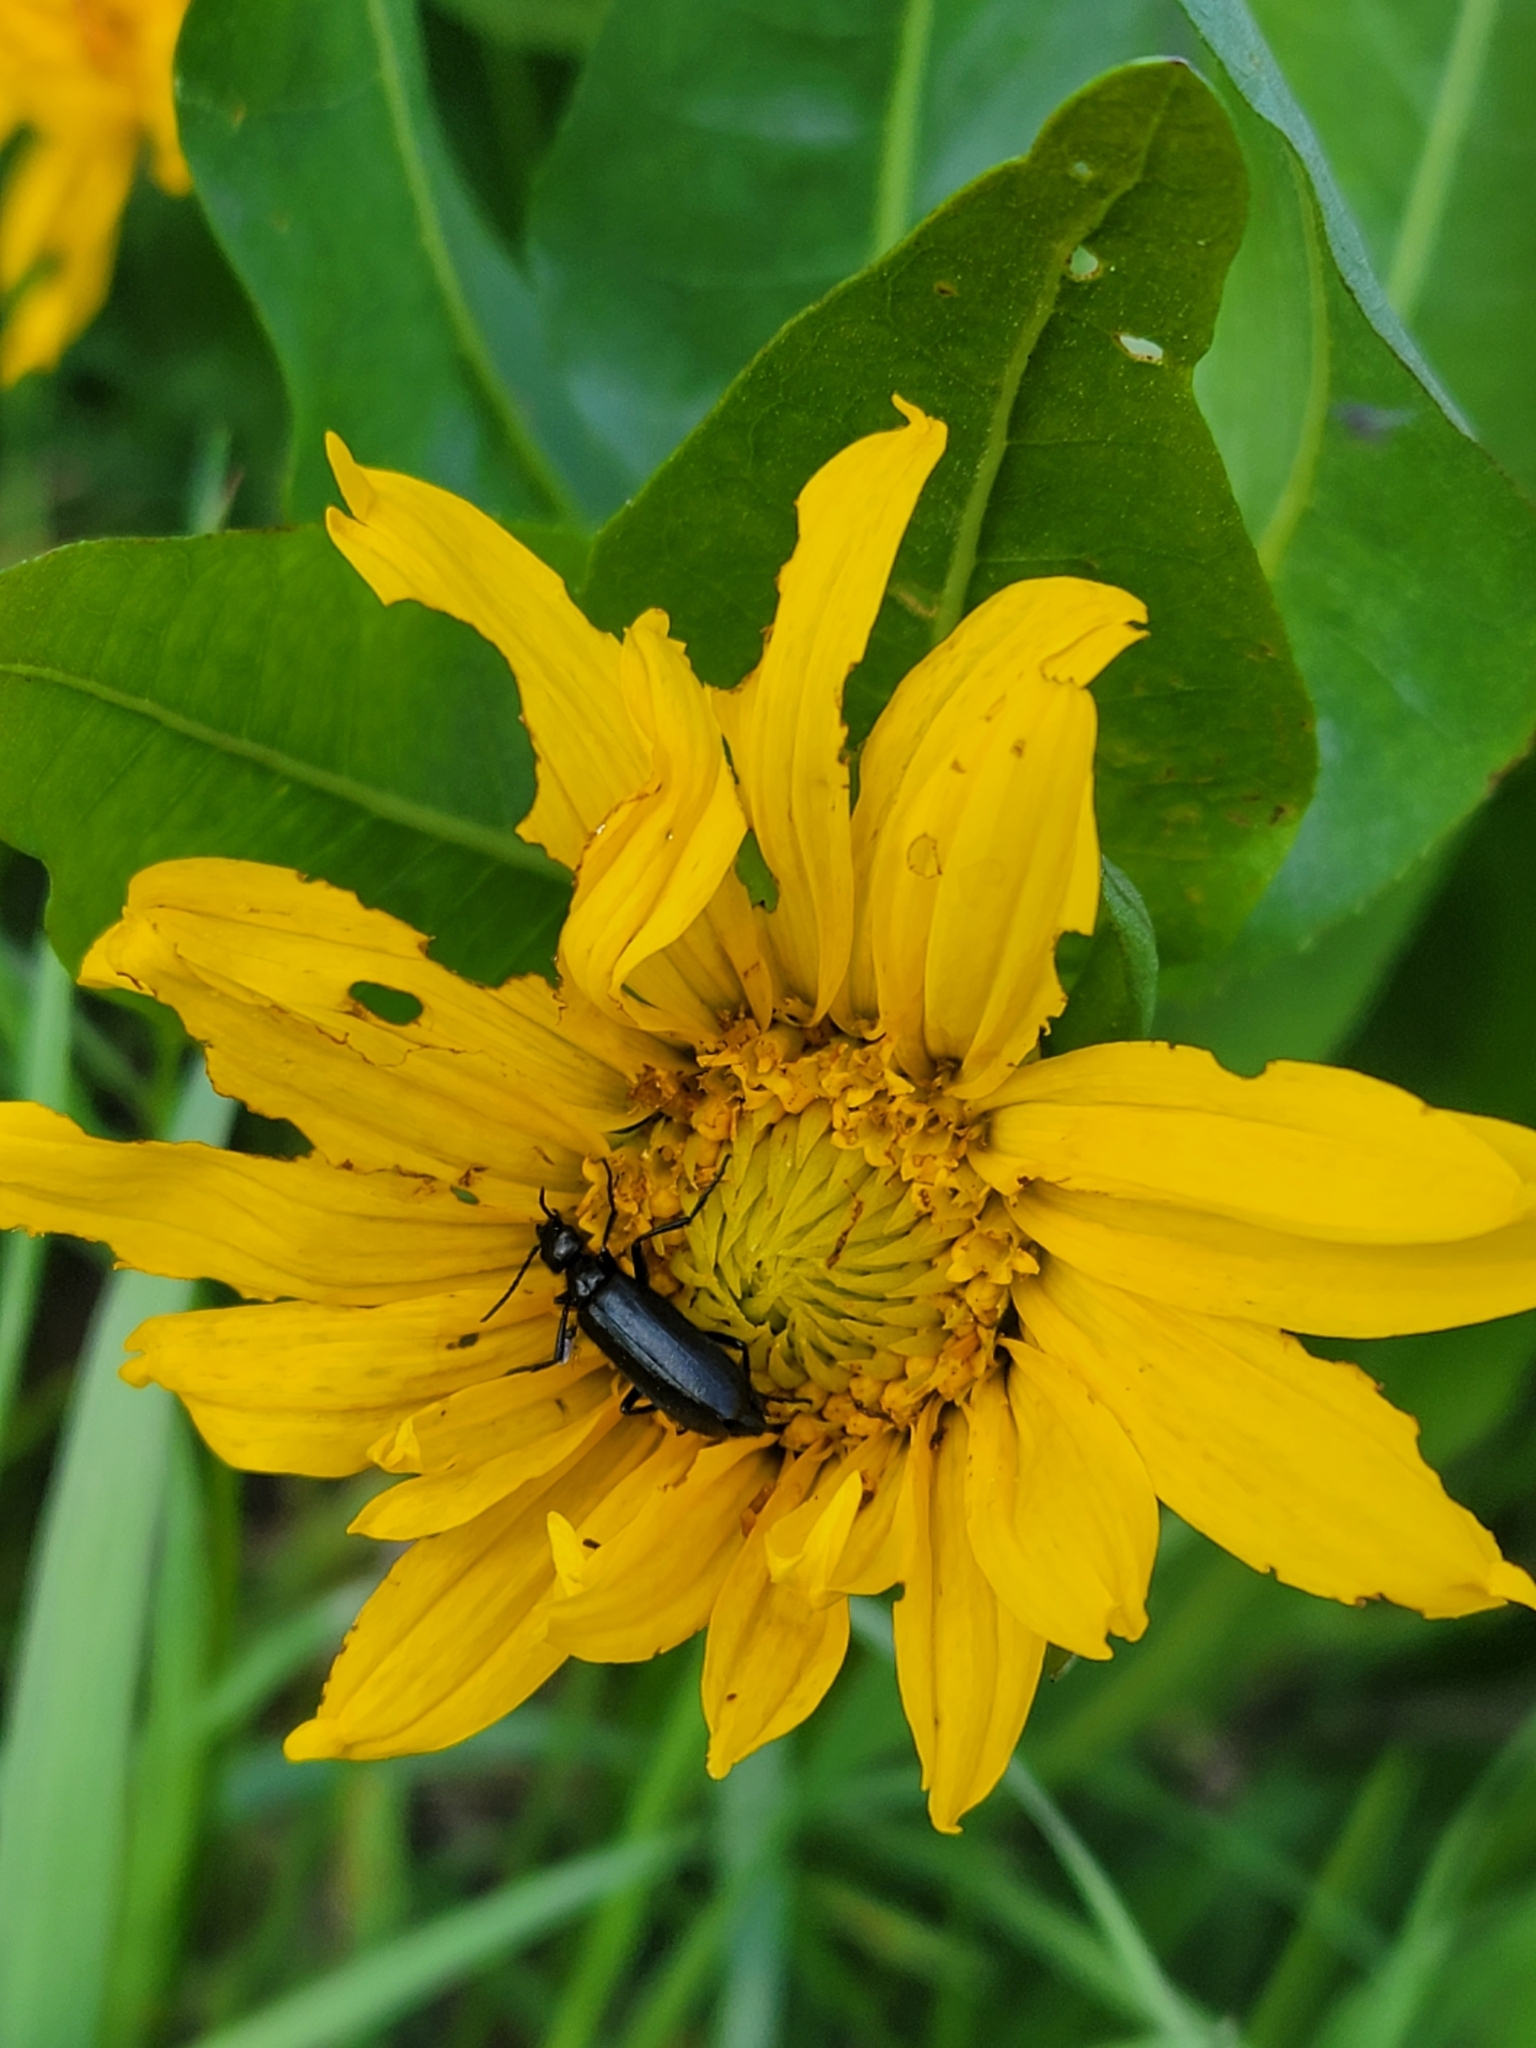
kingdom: Plantae
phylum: Tracheophyta
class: Magnoliopsida
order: Asterales
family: Asteraceae
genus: Wyethia
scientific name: Wyethia amplexicaulis
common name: Northern mule's-ears
